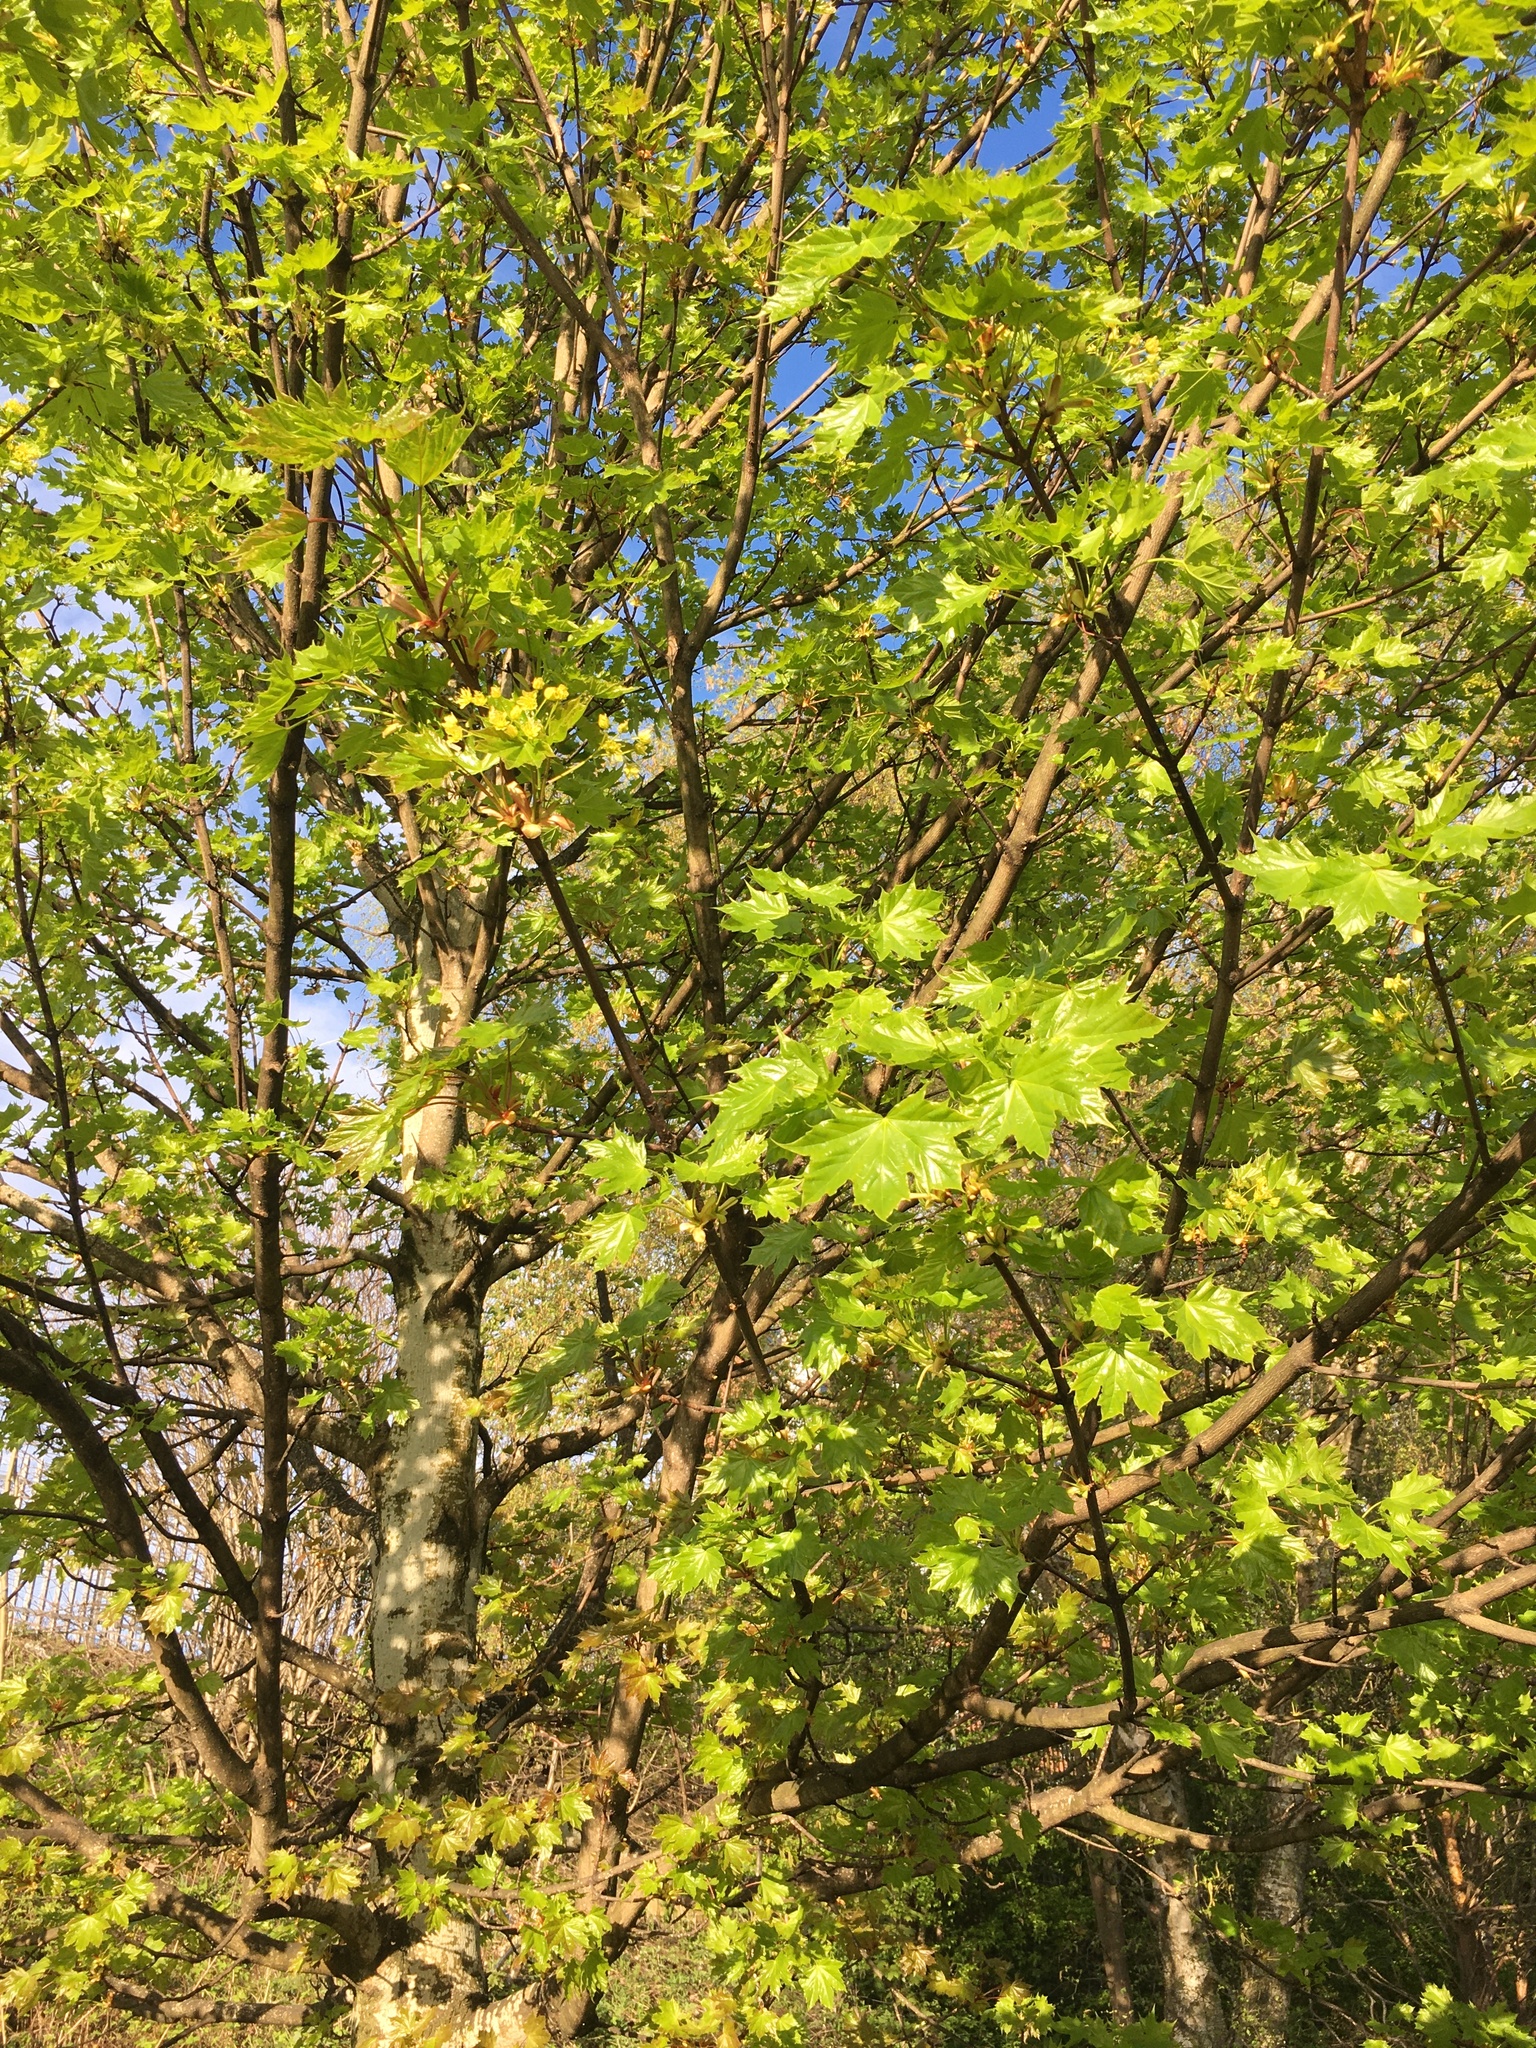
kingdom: Plantae
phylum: Tracheophyta
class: Magnoliopsida
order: Sapindales
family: Sapindaceae
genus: Acer
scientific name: Acer platanoides
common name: Norway maple
